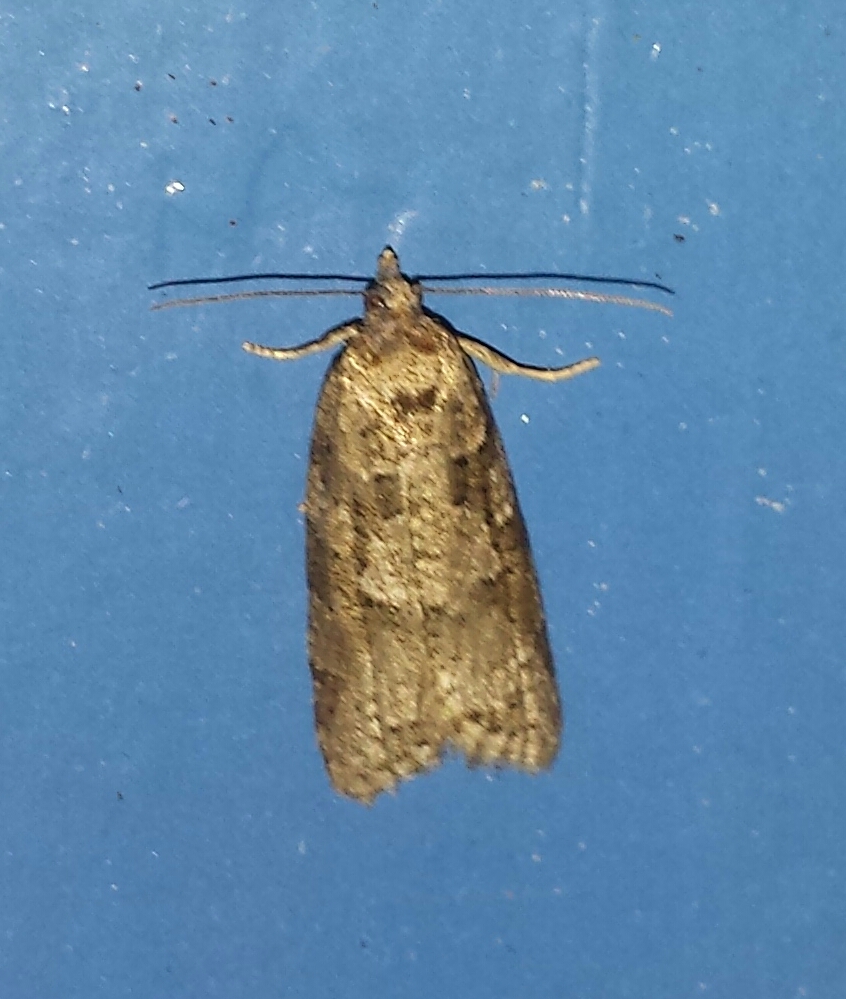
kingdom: Animalia
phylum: Arthropoda
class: Insecta
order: Lepidoptera
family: Tortricidae
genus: Cnephasia
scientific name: Cnephasia stephensiana
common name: Grey tortrix
